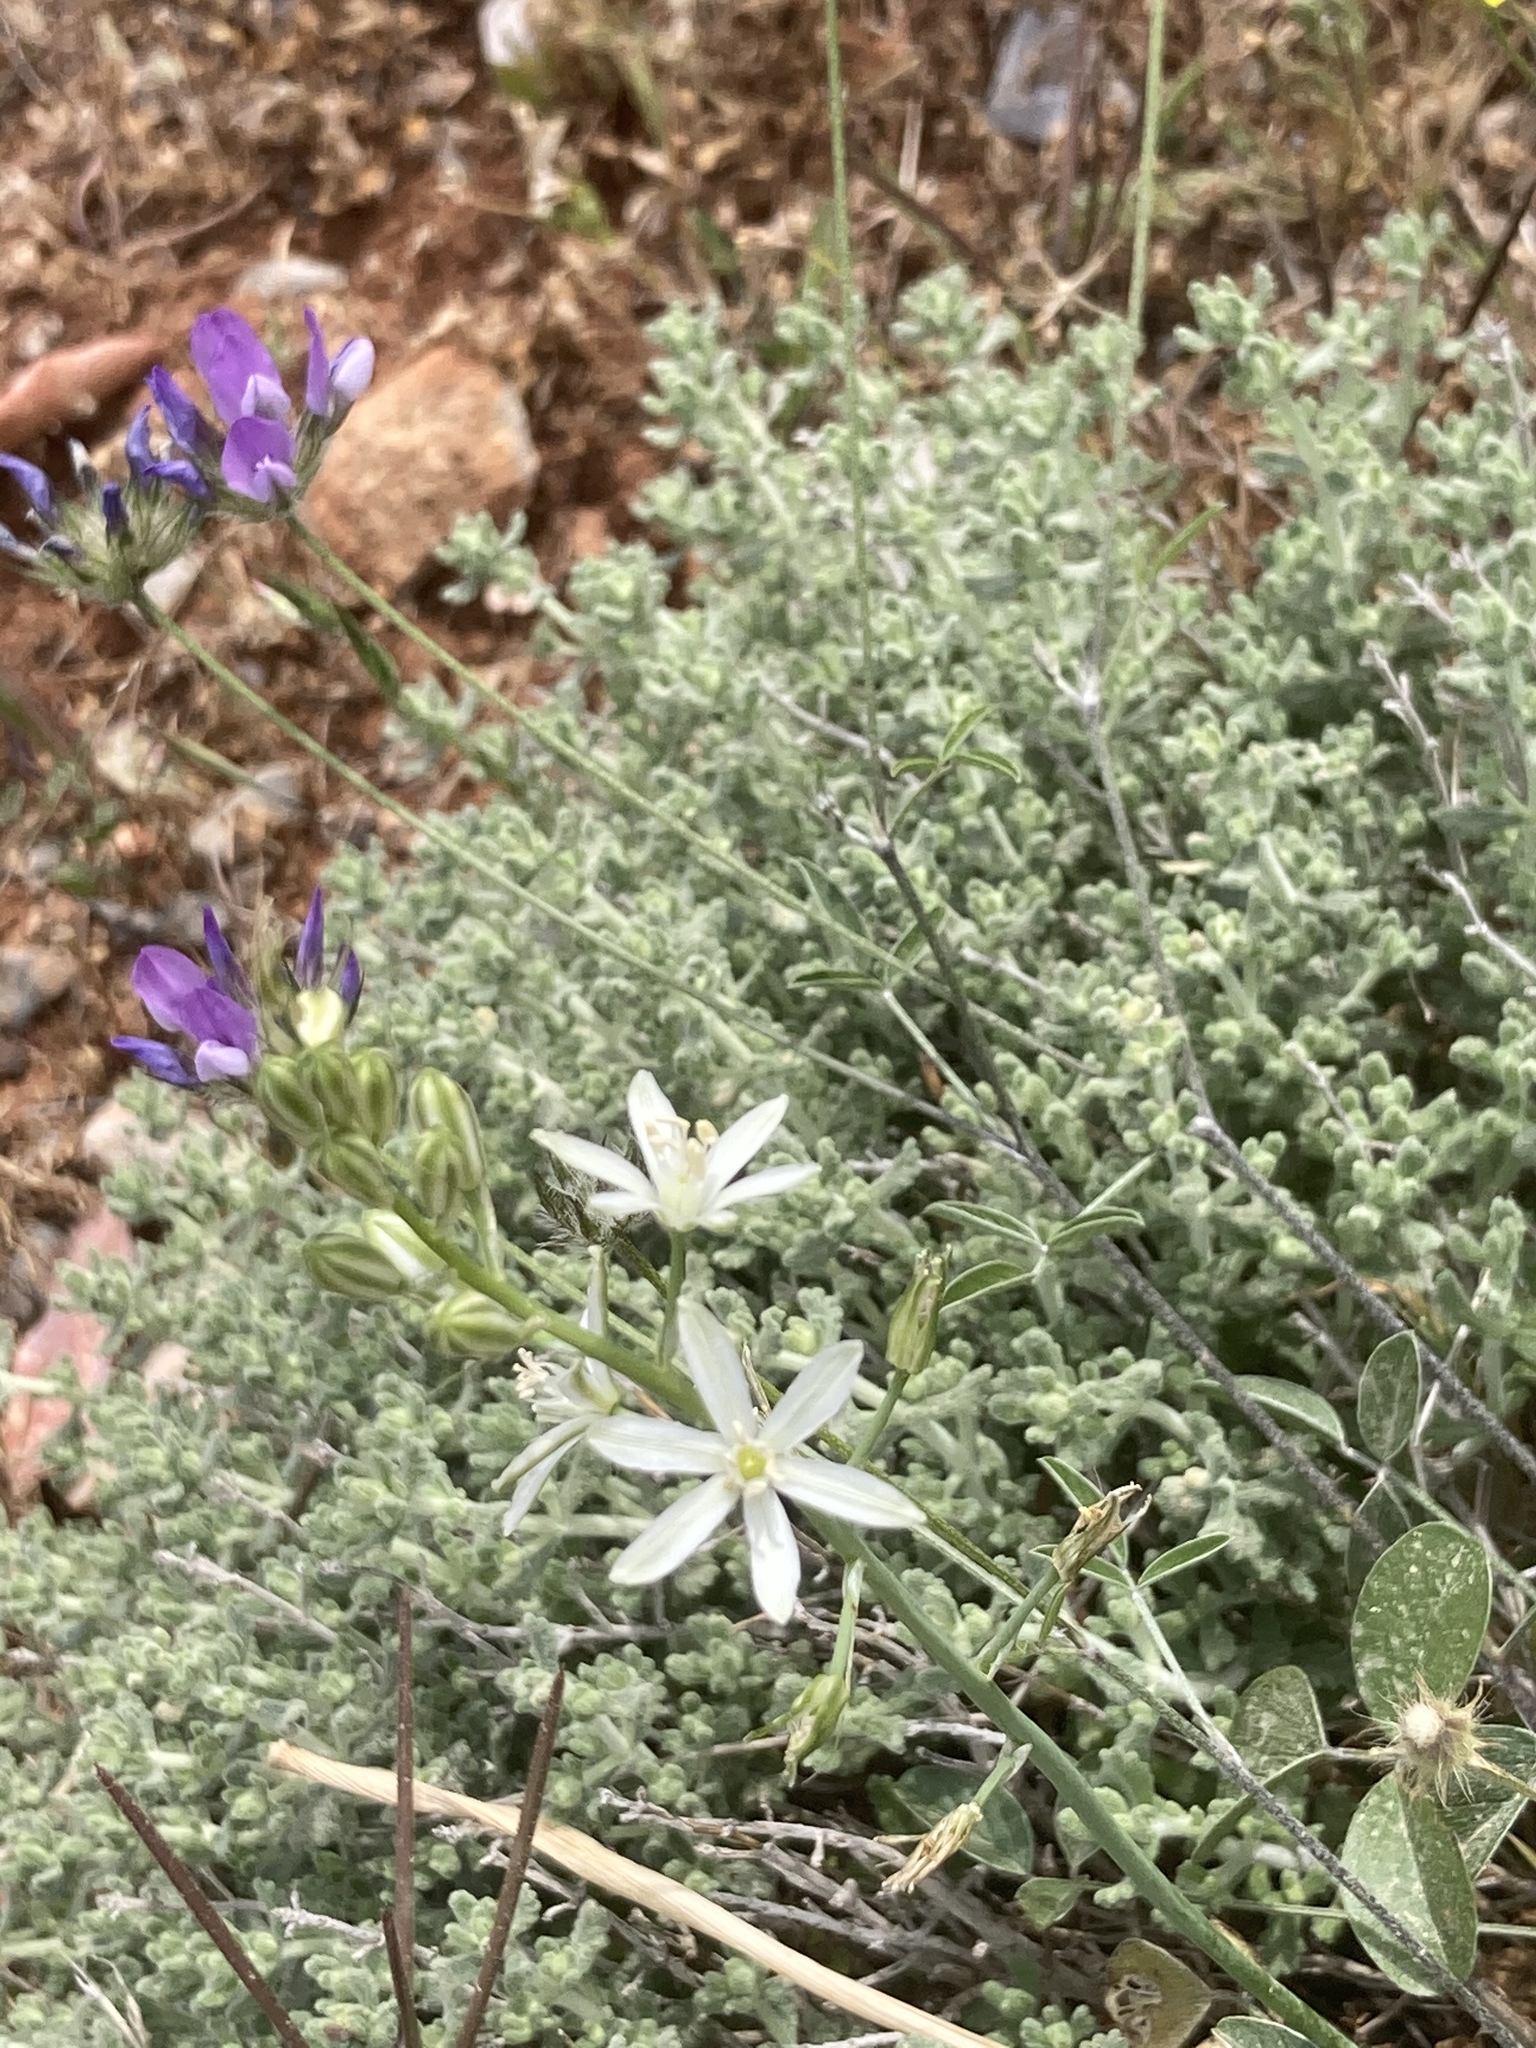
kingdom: Plantae
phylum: Tracheophyta
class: Liliopsida
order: Asparagales
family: Asparagaceae
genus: Ornithogalum
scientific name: Ornithogalum narbonense
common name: Bath-asparagus
